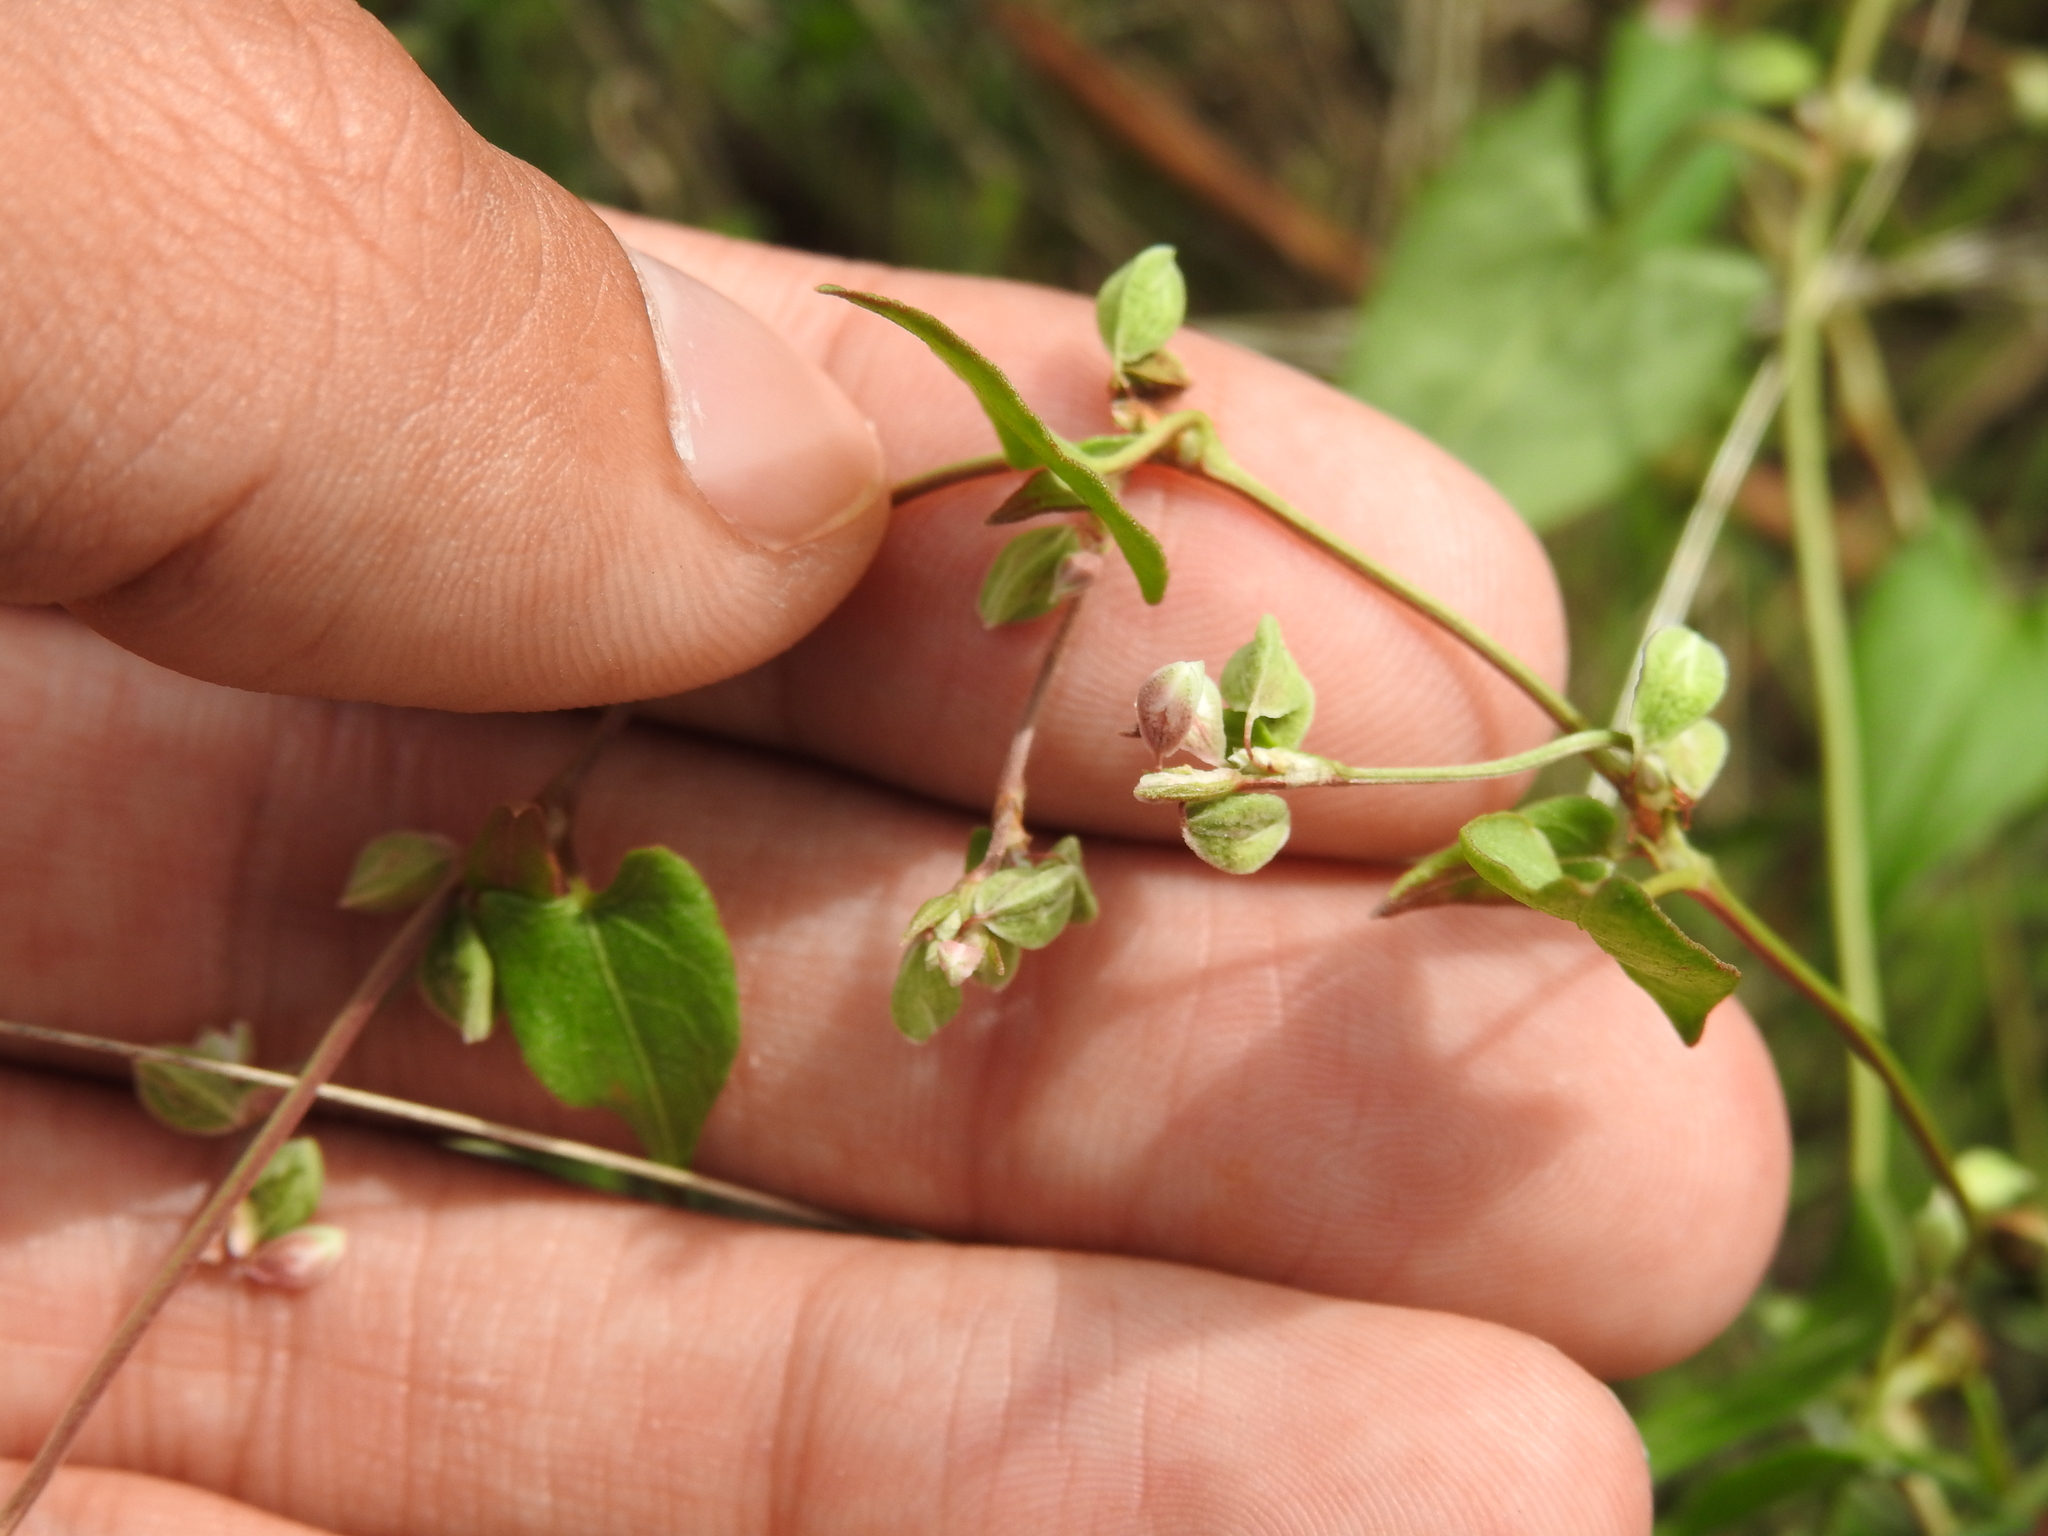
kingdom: Plantae
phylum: Tracheophyta
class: Magnoliopsida
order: Caryophyllales
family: Polygonaceae
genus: Fallopia
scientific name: Fallopia convolvulus
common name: Black bindweed
